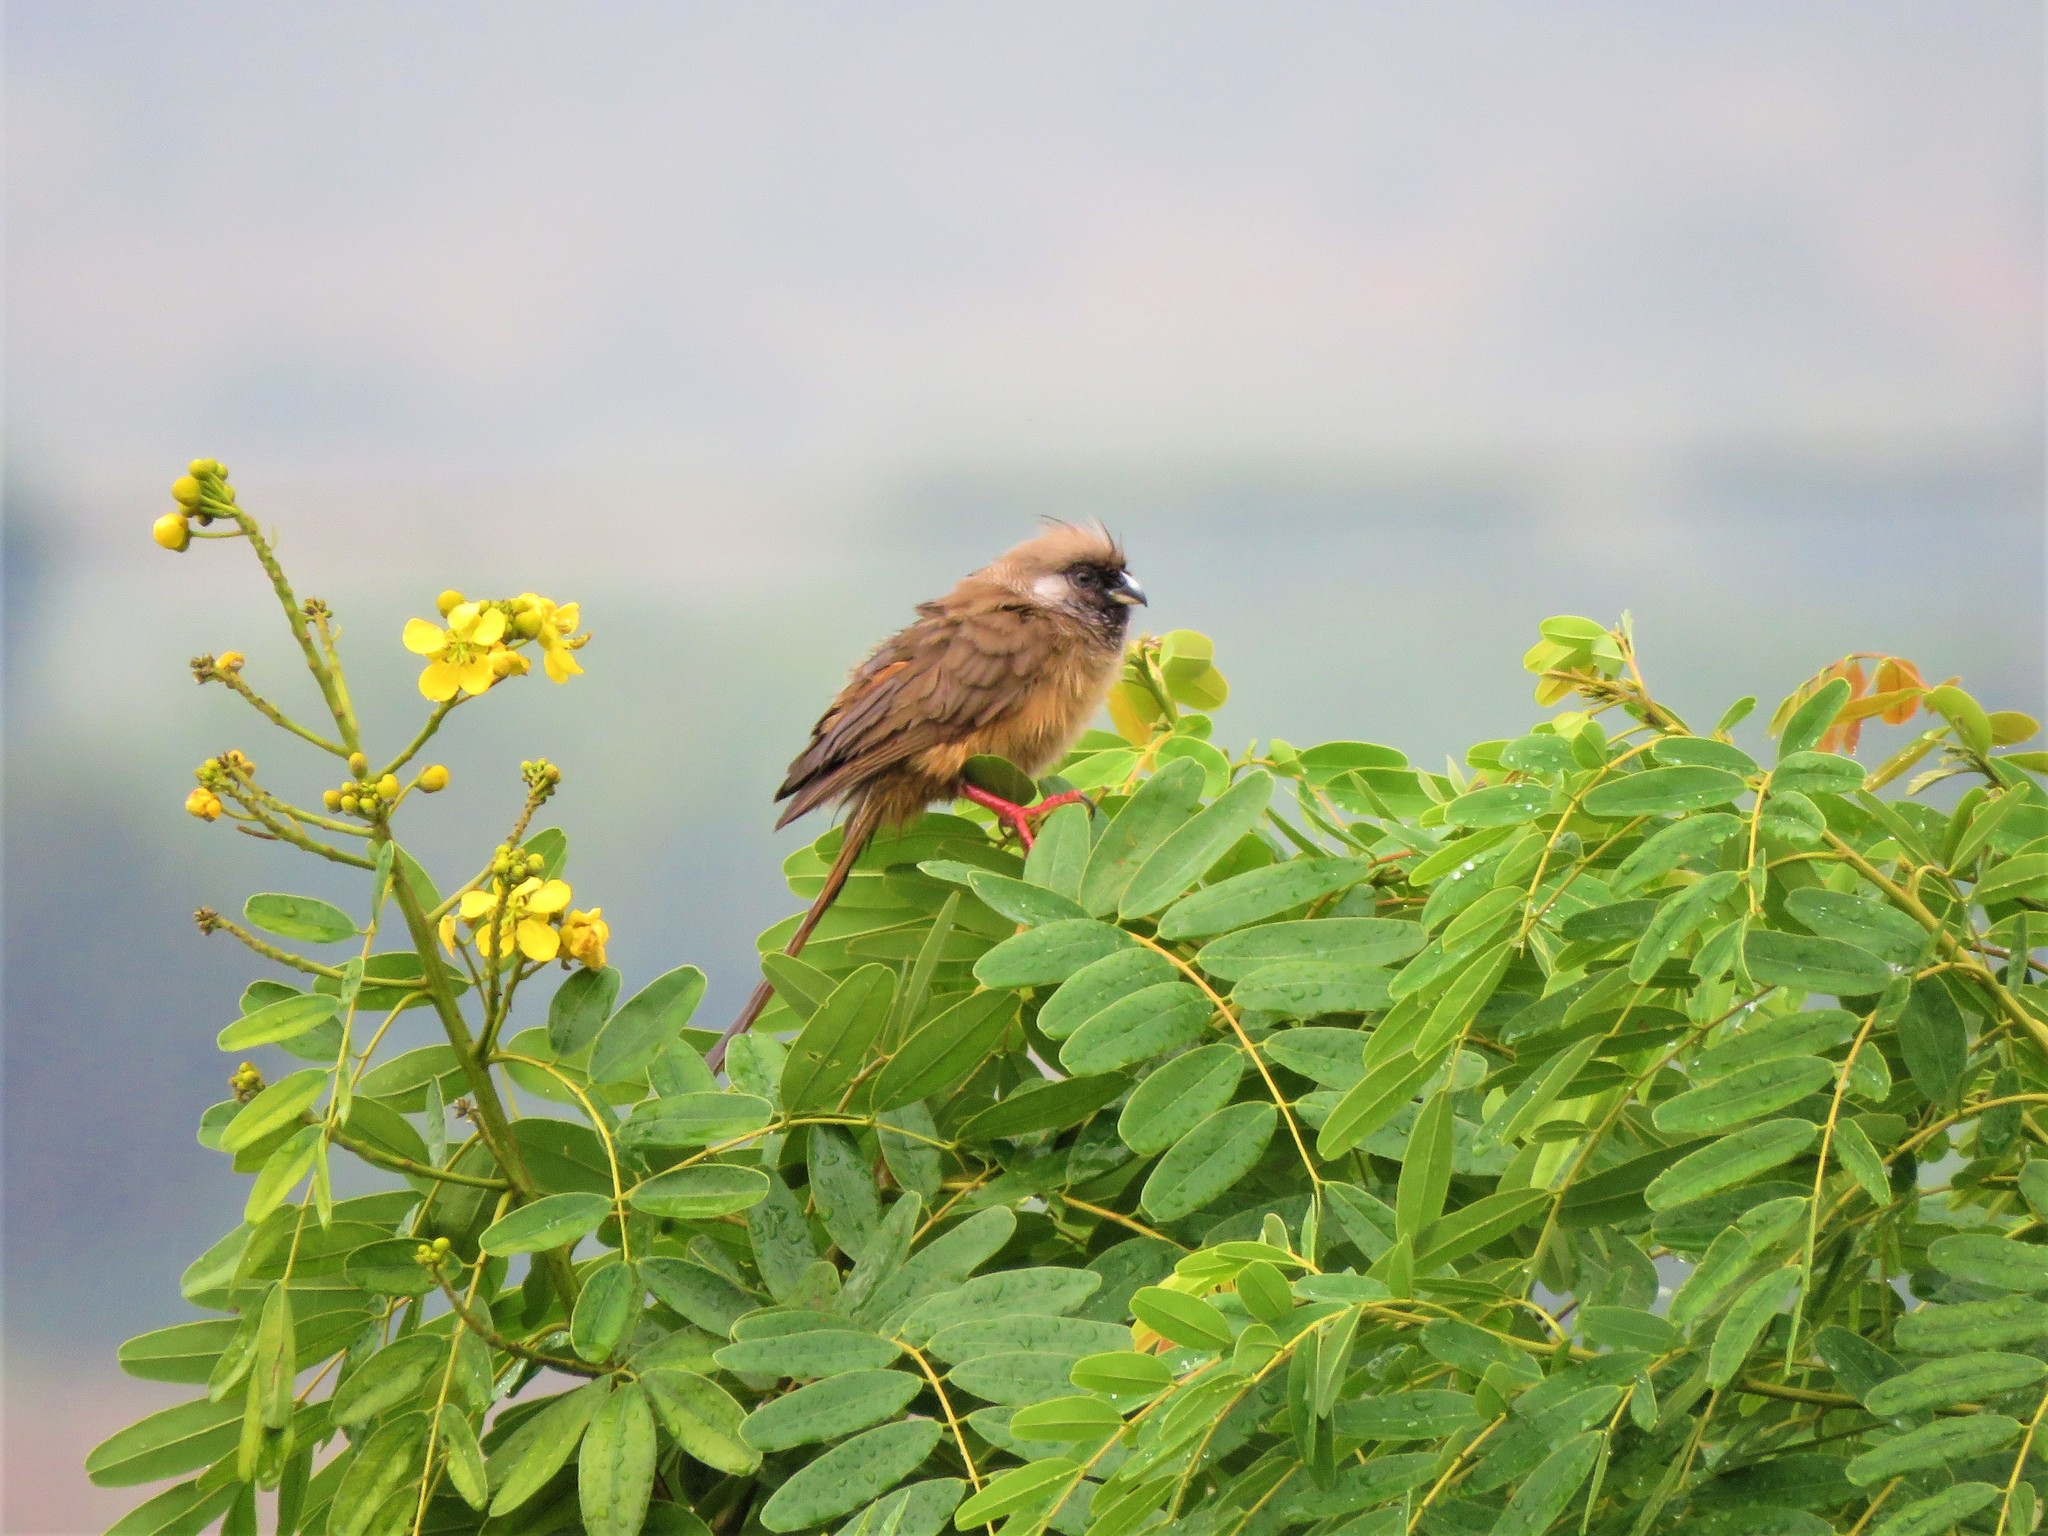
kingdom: Animalia
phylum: Chordata
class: Aves
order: Coliiformes
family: Coliidae
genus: Colius
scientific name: Colius striatus
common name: Speckled mousebird
